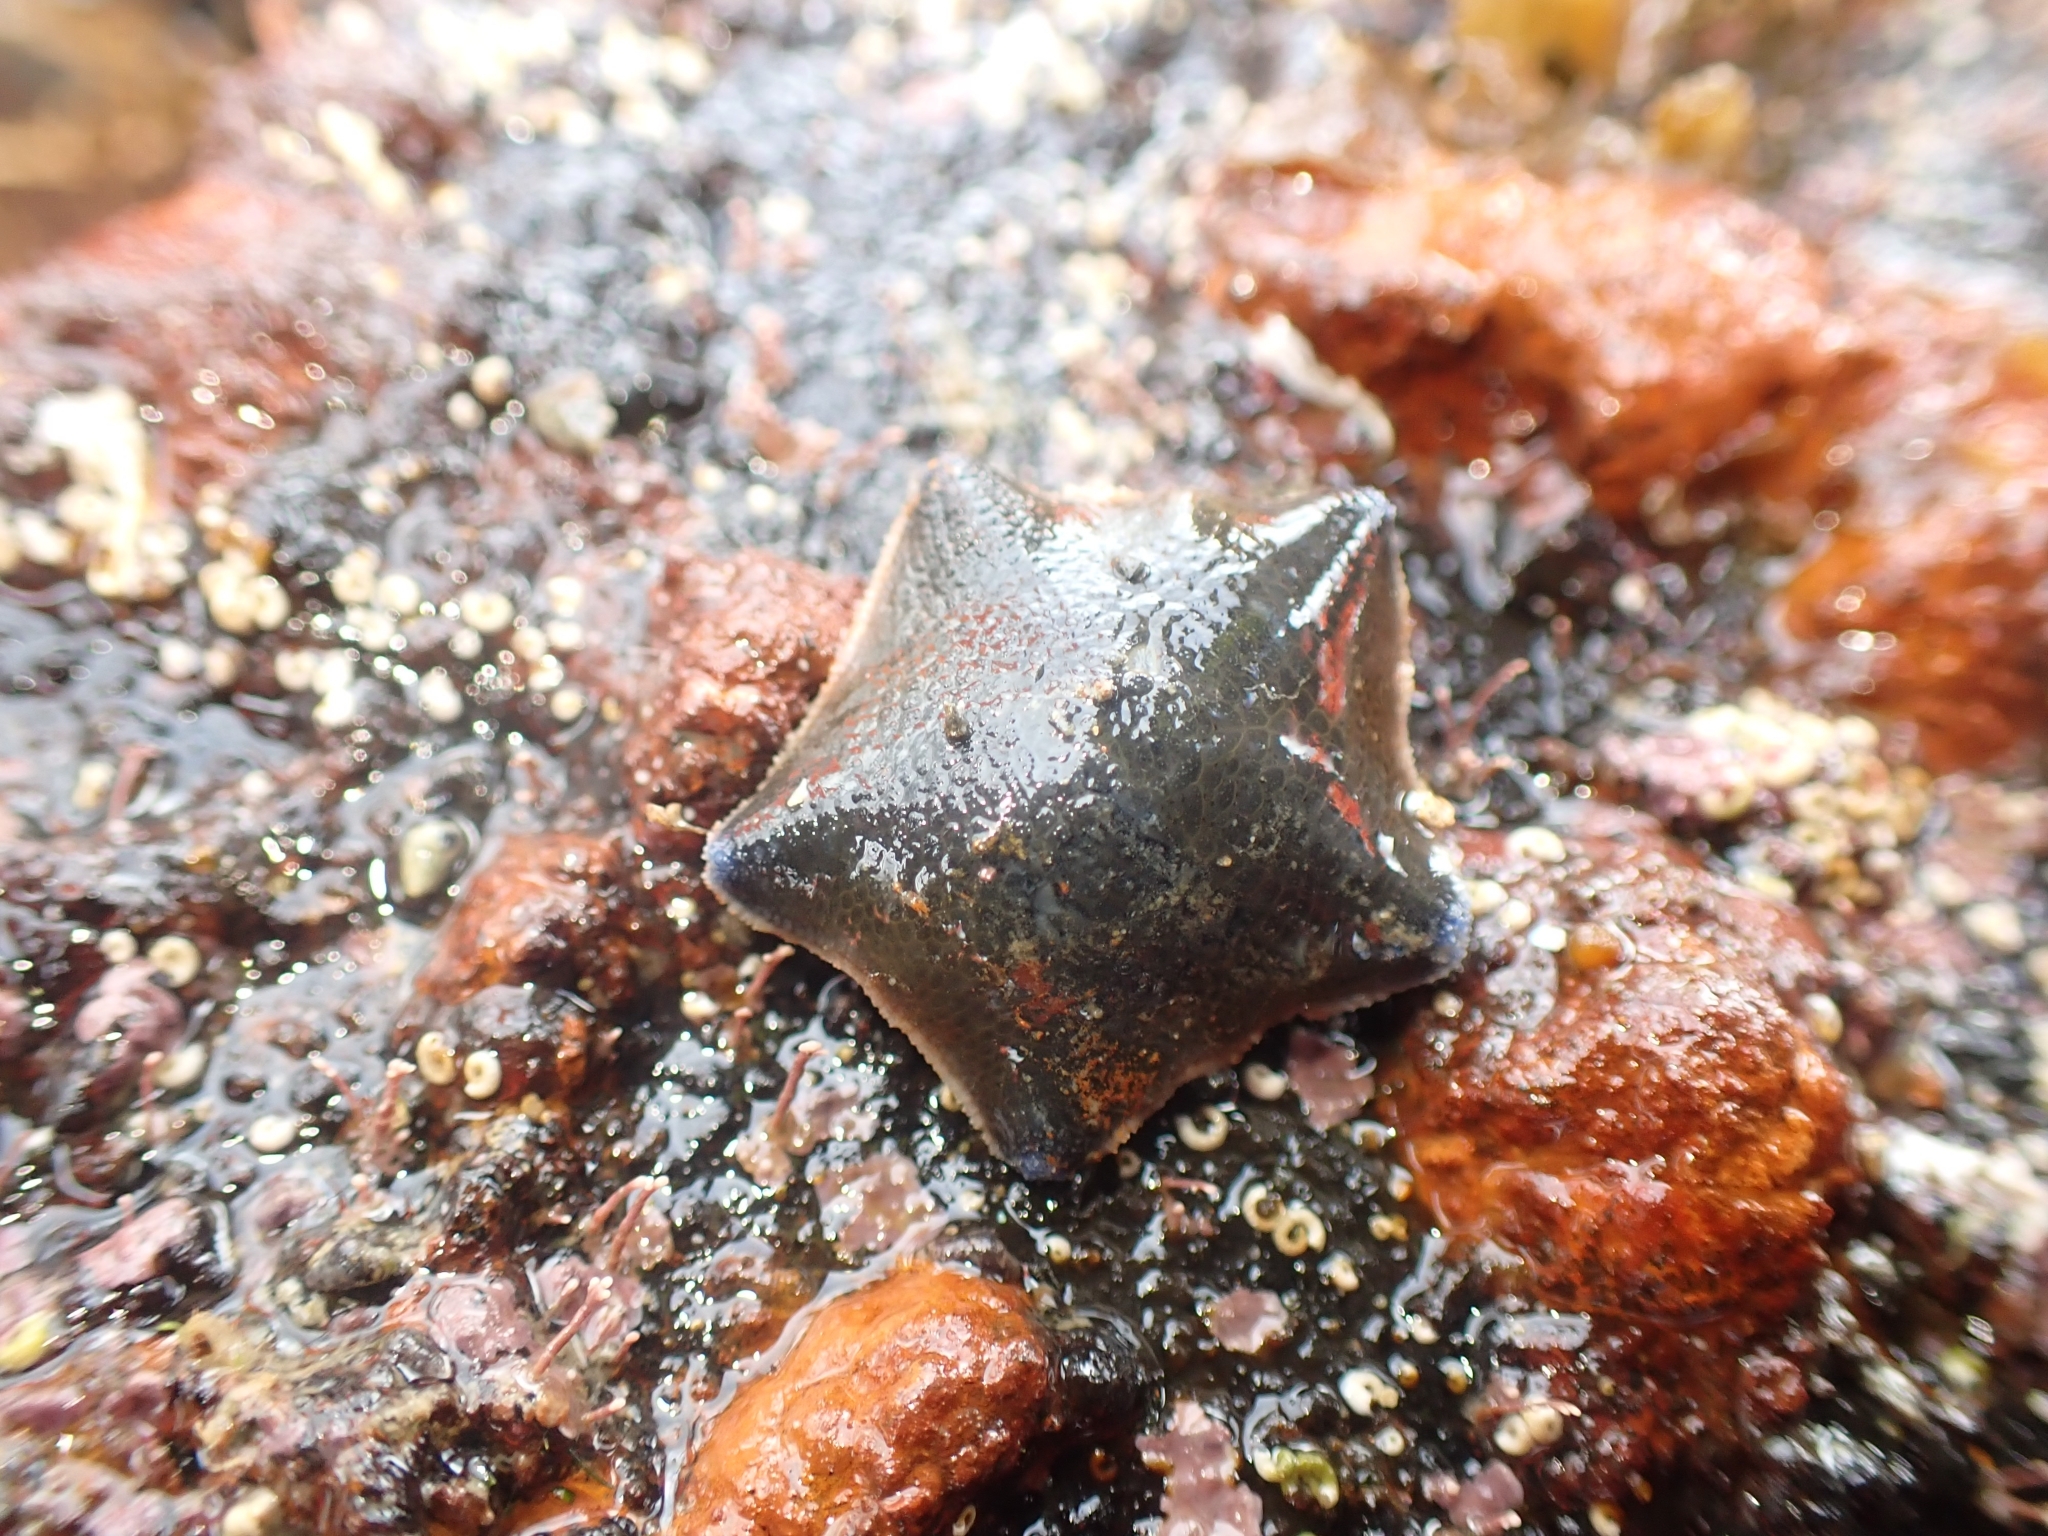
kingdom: Animalia
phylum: Echinodermata
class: Asteroidea
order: Valvatida
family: Asterinidae
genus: Patiriella
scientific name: Patiriella regularis
